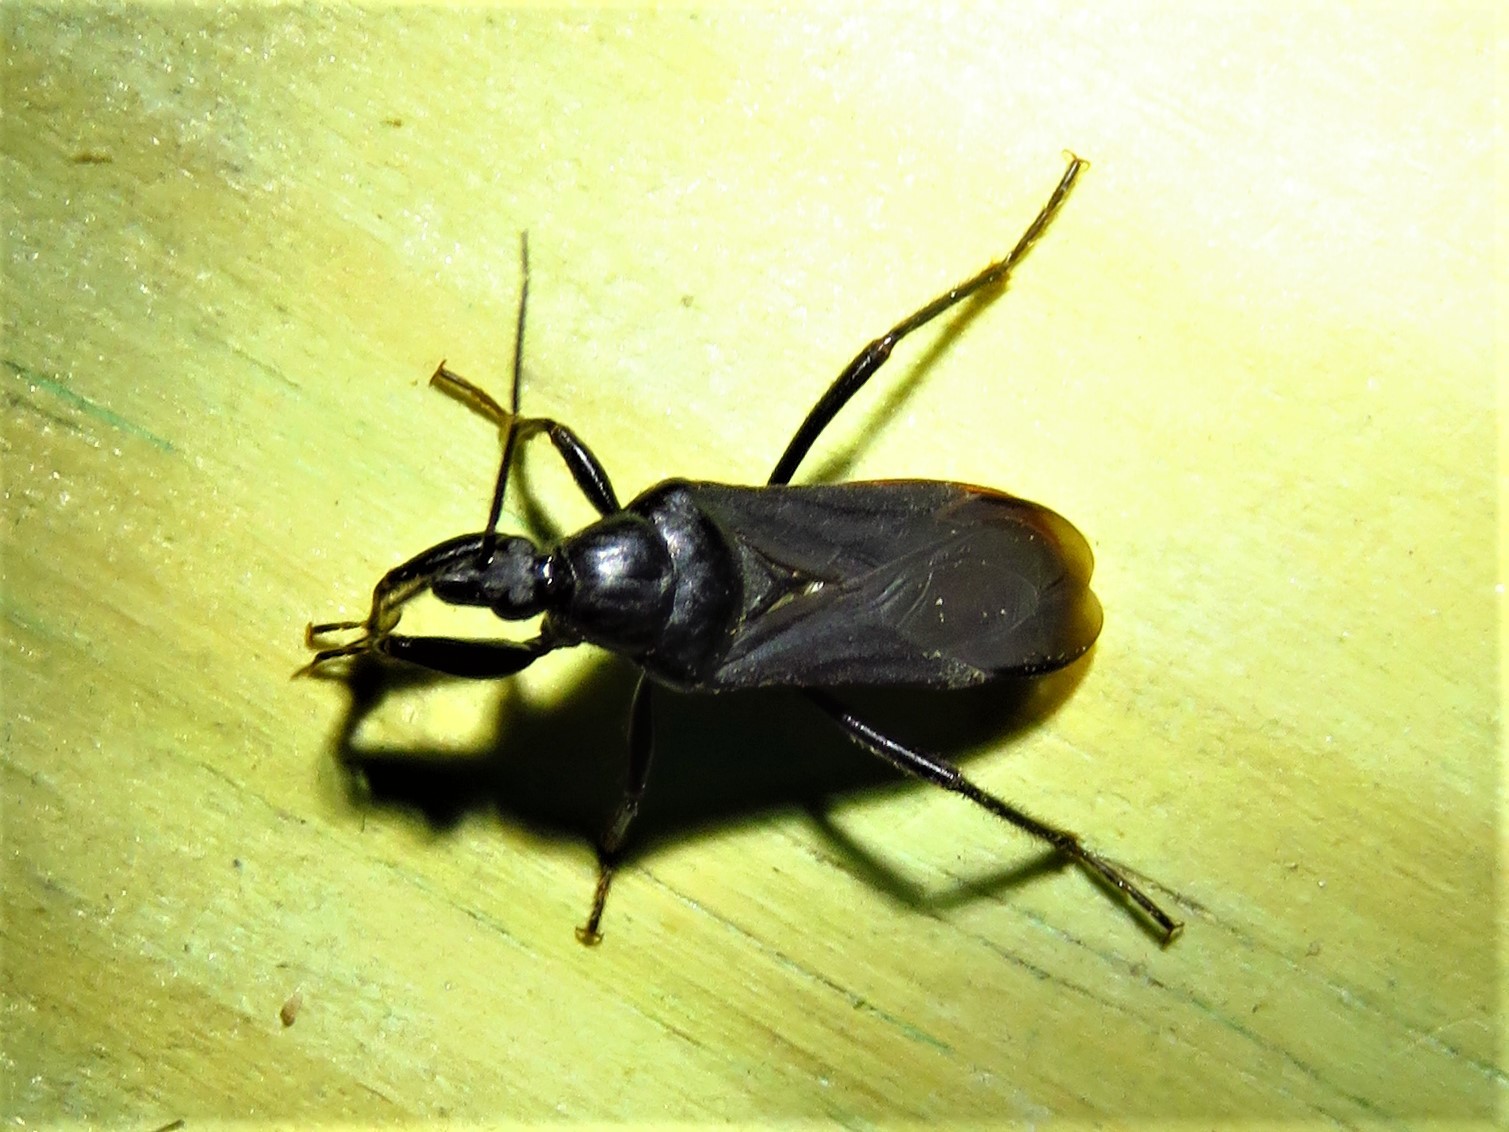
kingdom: Animalia
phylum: Arthropoda
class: Insecta
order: Hemiptera
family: Reduviidae
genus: Melanolestes
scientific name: Melanolestes picipes
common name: Assassin bug
